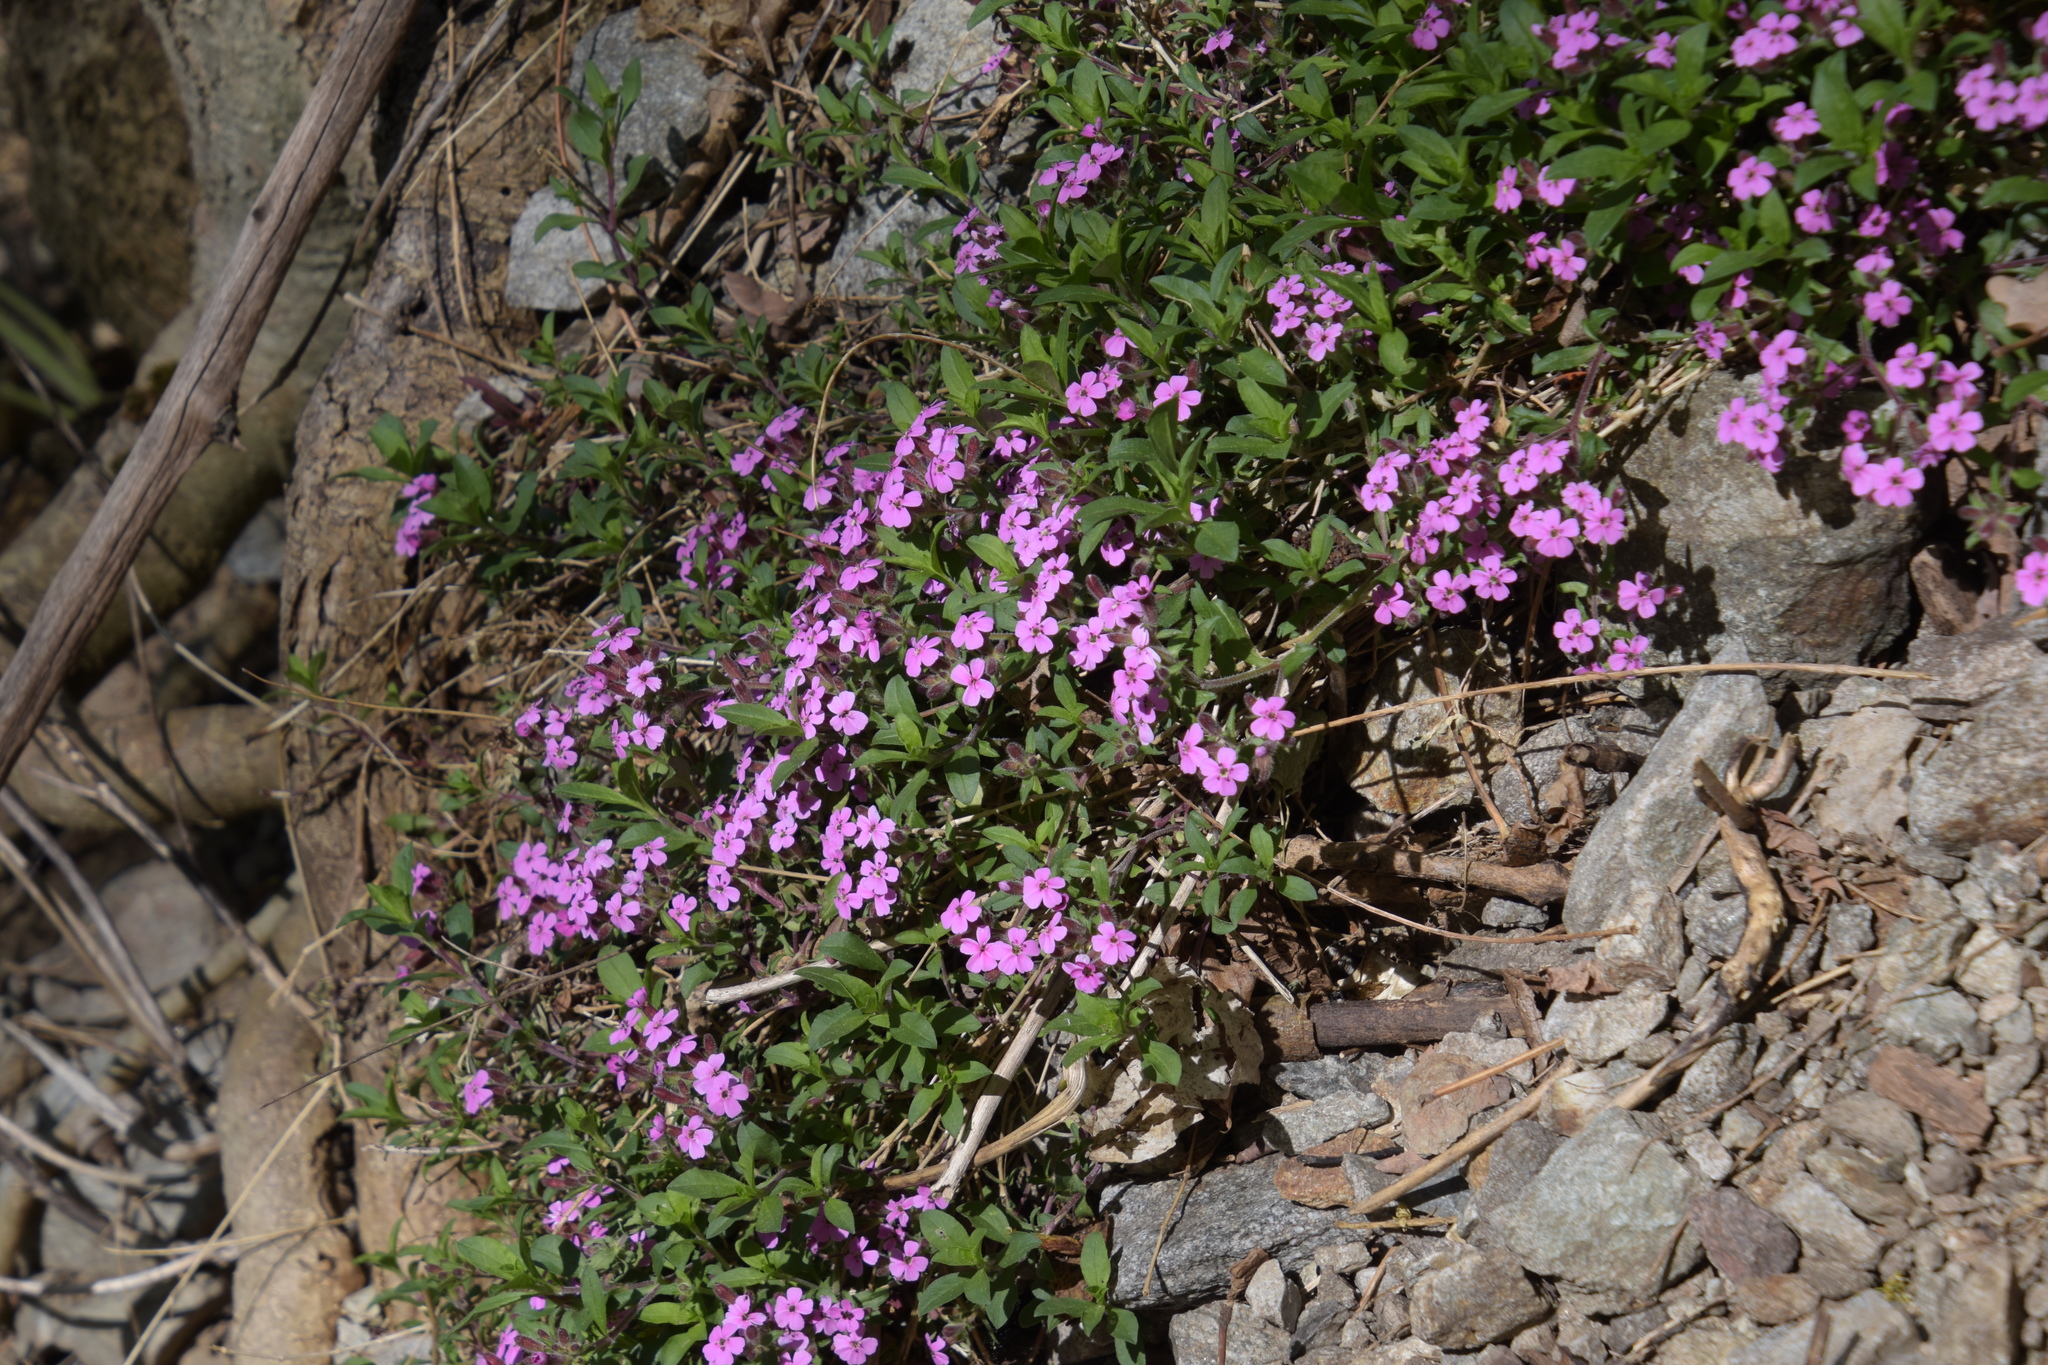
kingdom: Plantae
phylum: Tracheophyta
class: Magnoliopsida
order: Caryophyllales
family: Caryophyllaceae
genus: Saponaria
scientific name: Saponaria ocymoides
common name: Rock soapwort
